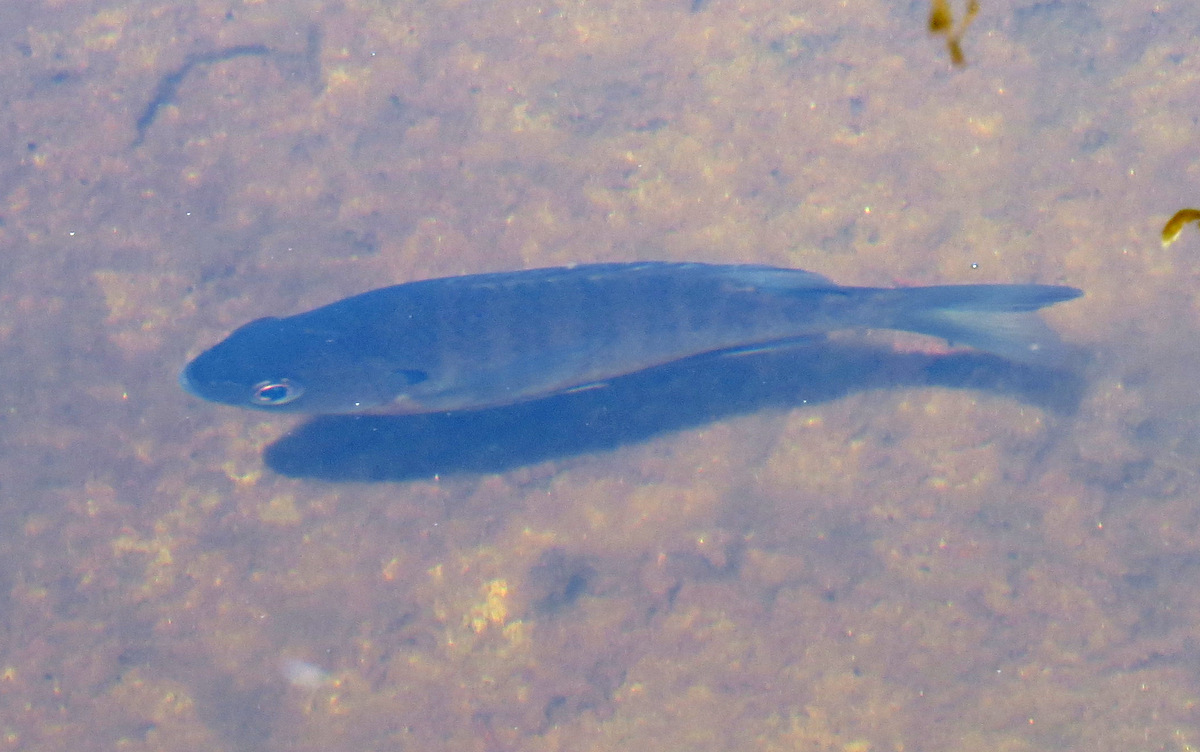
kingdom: Animalia
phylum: Chordata
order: Perciformes
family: Centrarchidae
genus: Lepomis
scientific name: Lepomis macrochirus
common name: Bluegill
